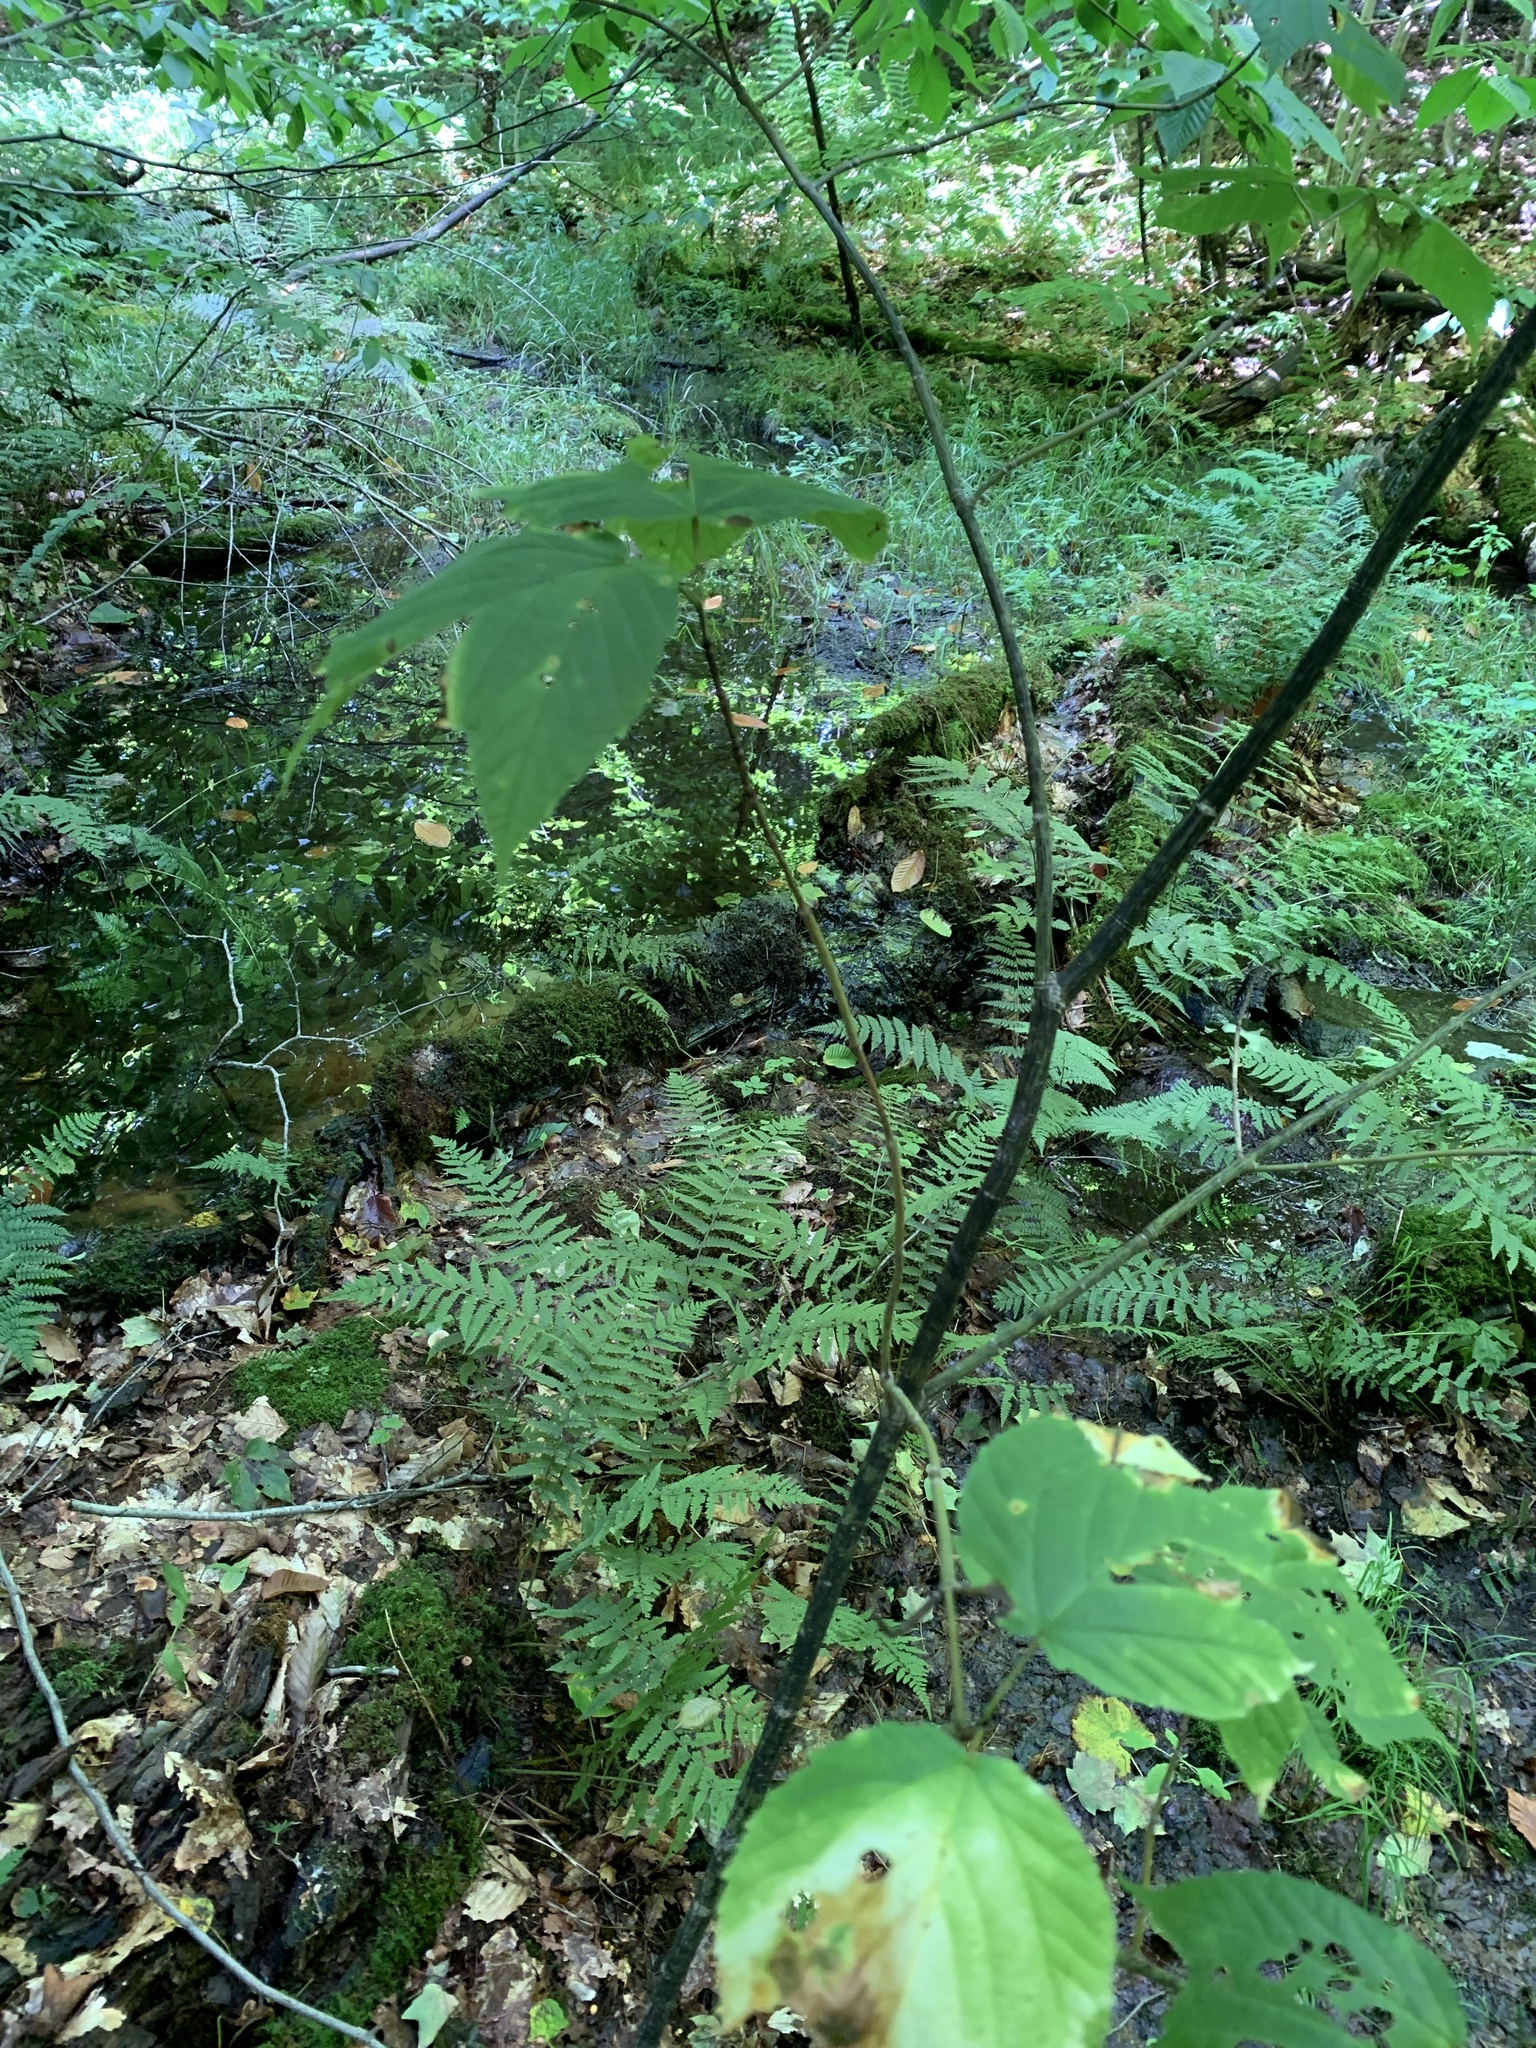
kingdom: Plantae
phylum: Tracheophyta
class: Magnoliopsida
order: Sapindales
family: Sapindaceae
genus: Acer
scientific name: Acer pensylvanicum
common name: Moosewood
